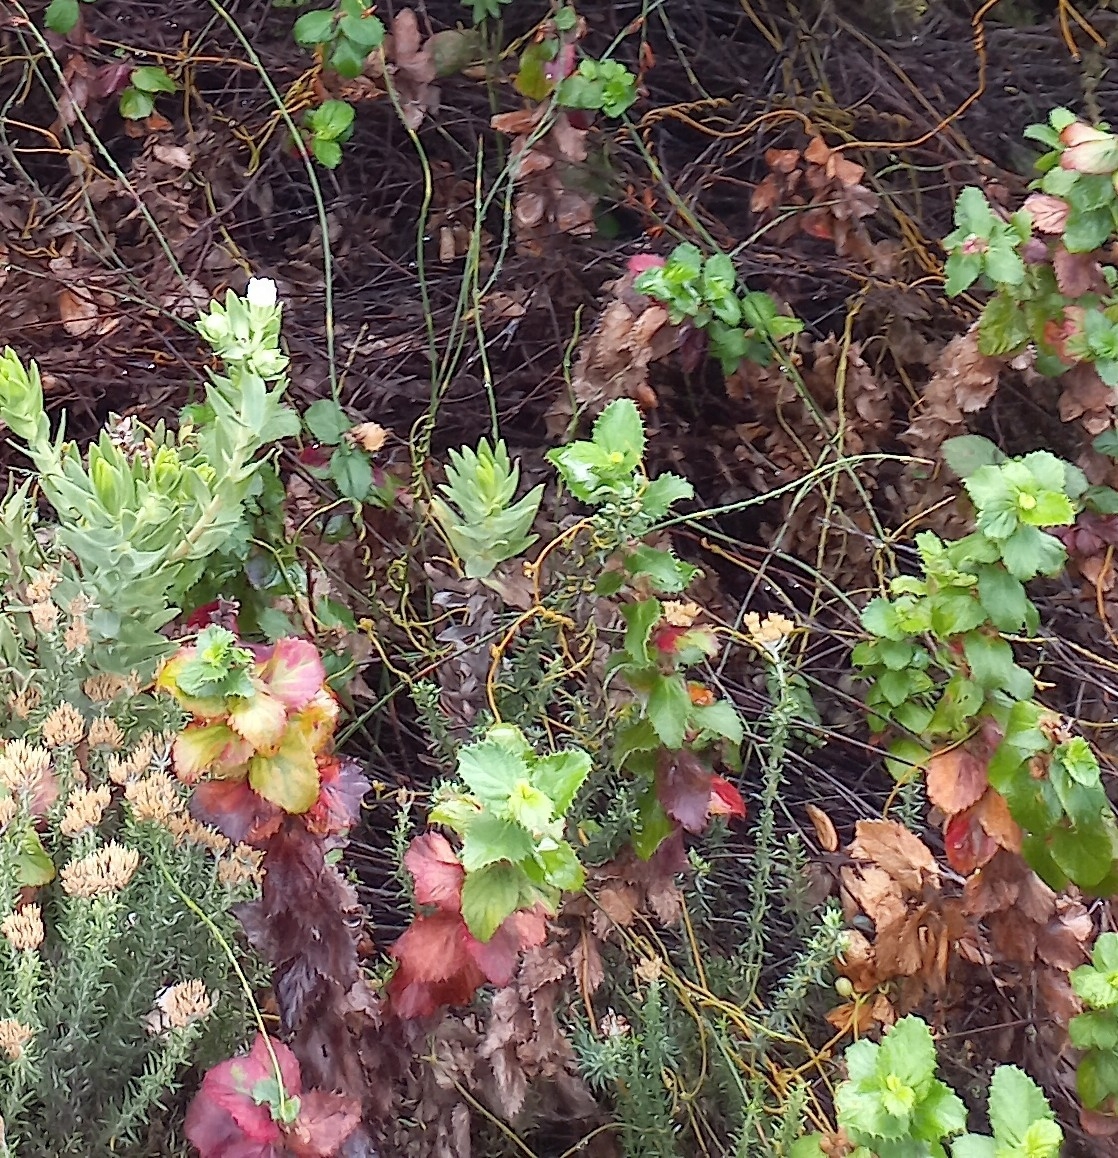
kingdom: Plantae
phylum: Tracheophyta
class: Magnoliopsida
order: Rosales
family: Rosaceae
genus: Cliffortia
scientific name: Cliffortia hirsuta
